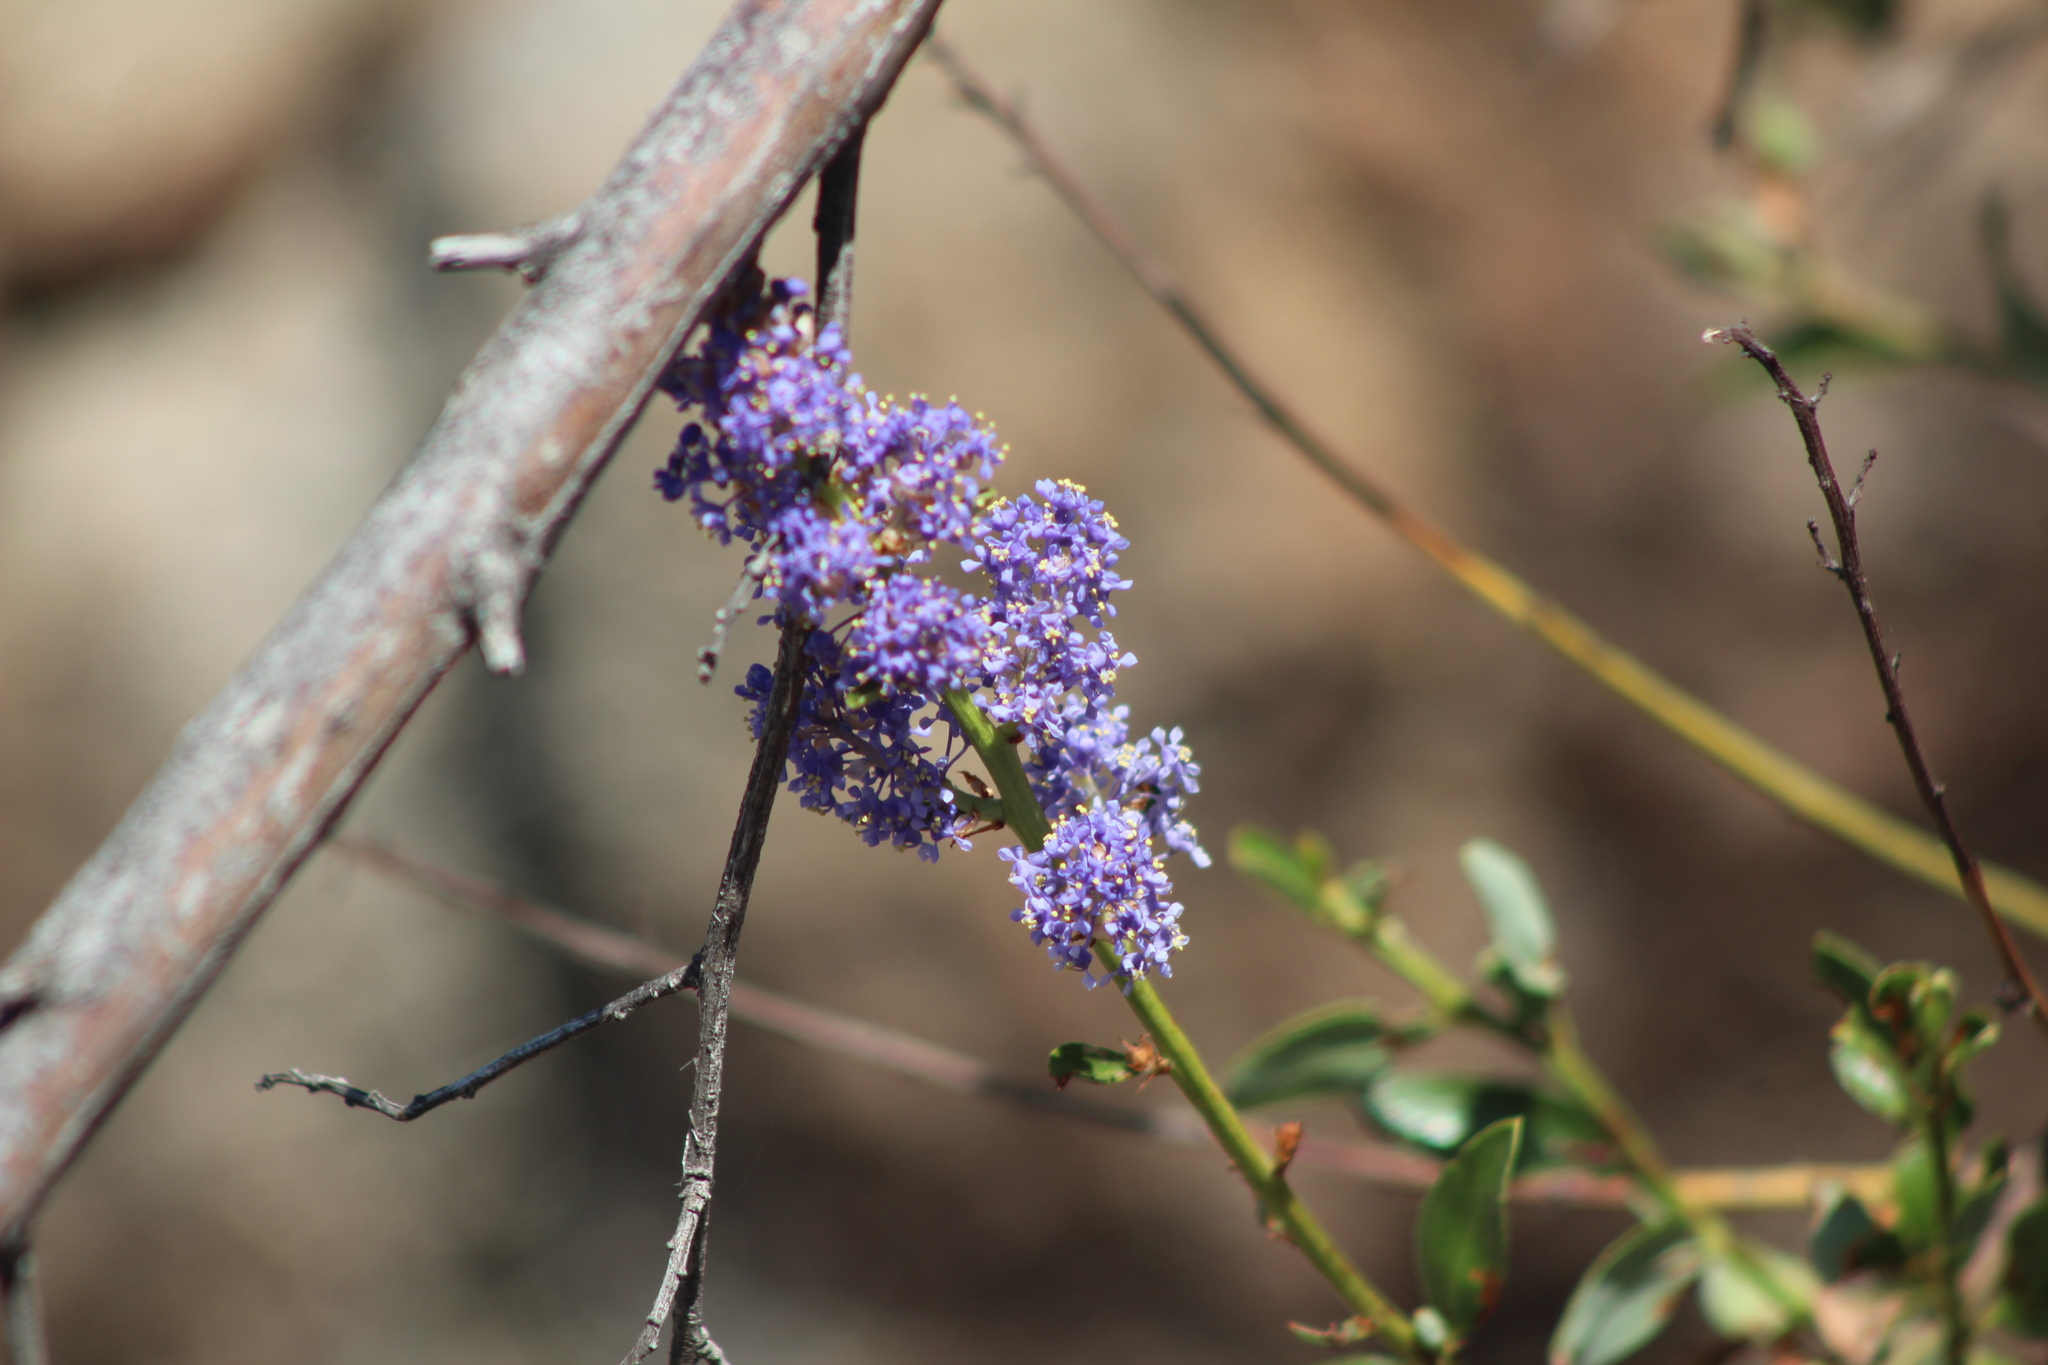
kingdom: Plantae
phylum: Tracheophyta
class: Magnoliopsida
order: Rosales
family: Rhamnaceae
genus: Ceanothus
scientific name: Ceanothus cyaneus
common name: Lakeside ceanothus
